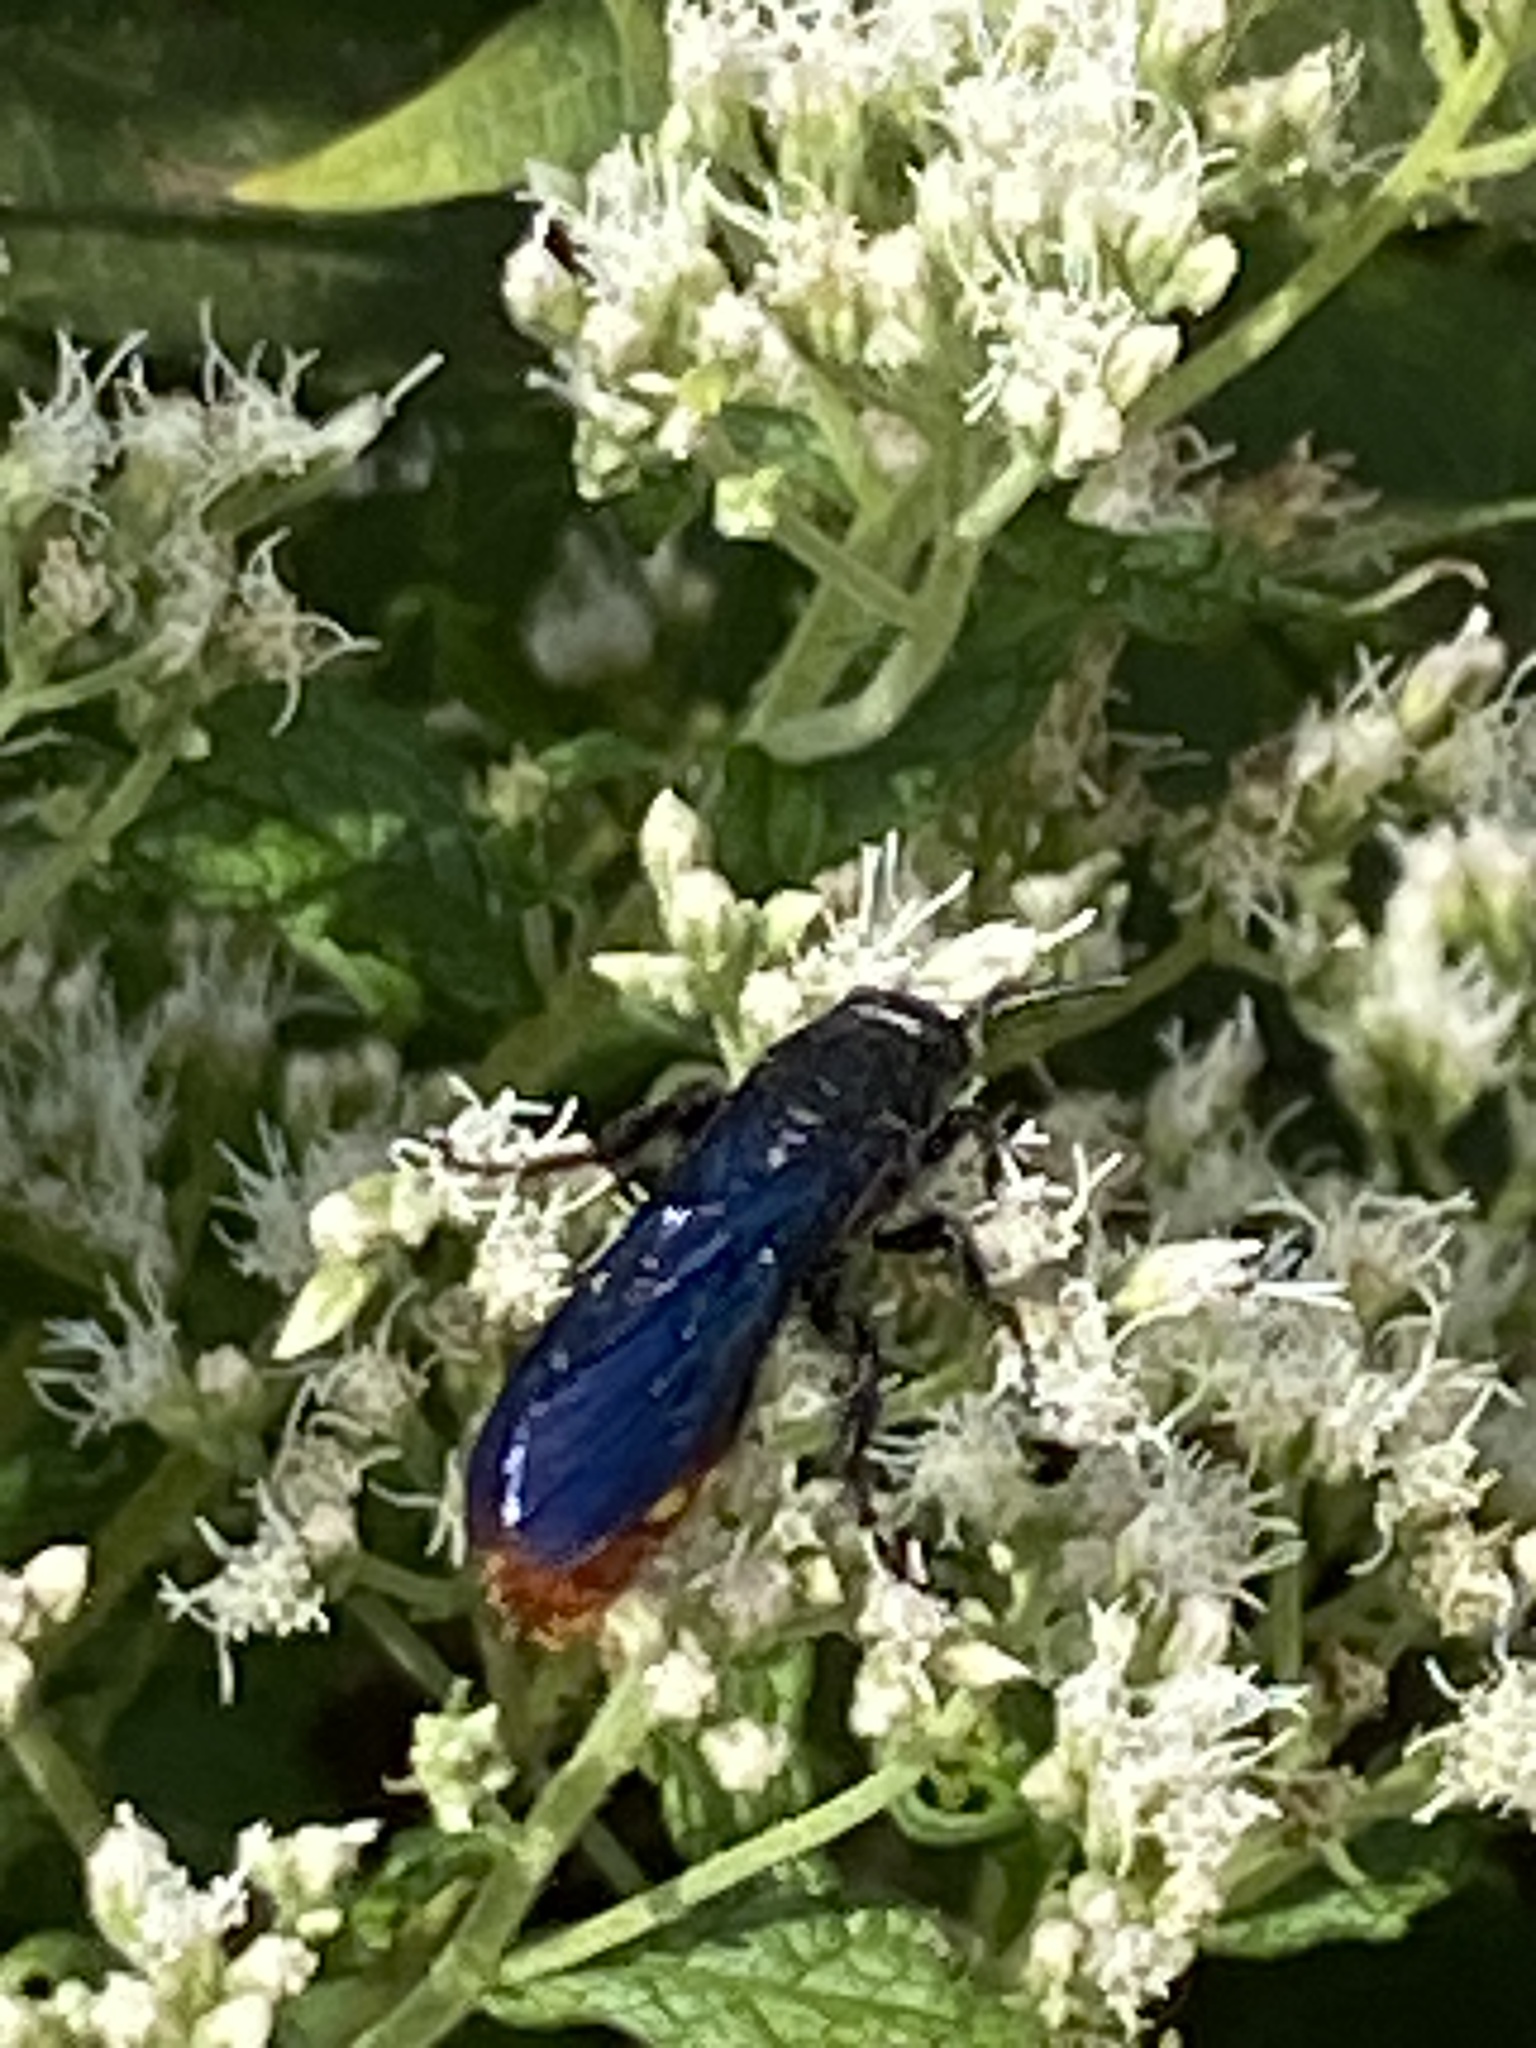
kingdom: Animalia
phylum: Arthropoda
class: Insecta
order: Hymenoptera
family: Scoliidae
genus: Scolia
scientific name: Scolia dubia
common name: Blue-winged scoliid wasp
